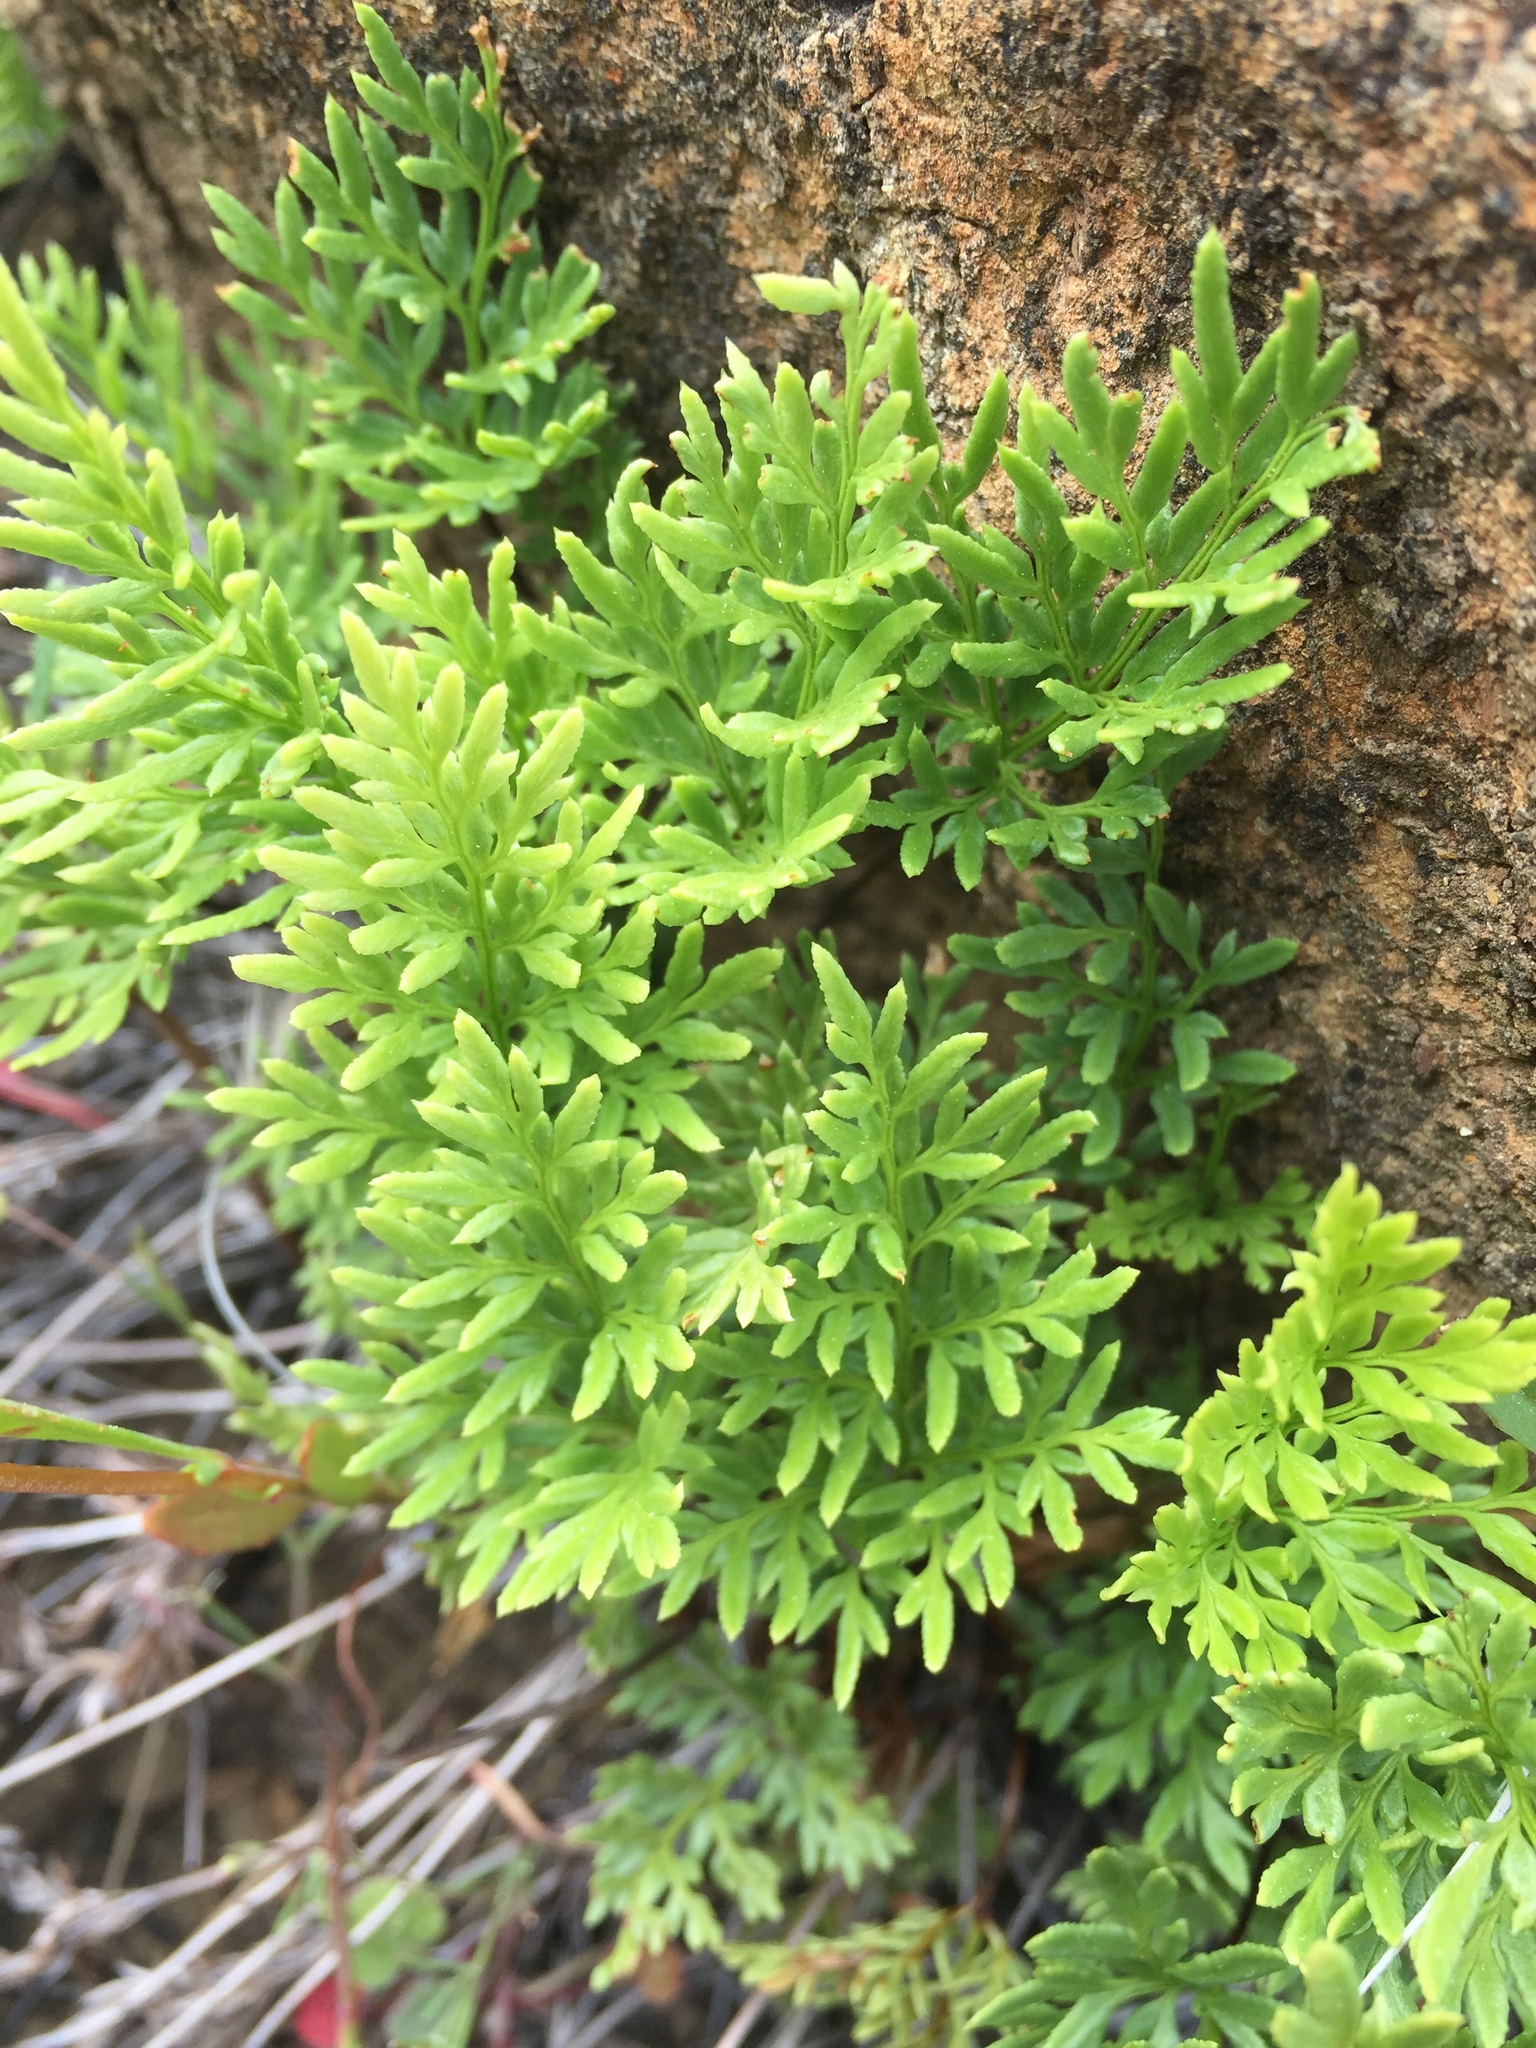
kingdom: Plantae
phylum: Tracheophyta
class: Polypodiopsida
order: Polypodiales
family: Pteridaceae
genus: Aspidotis
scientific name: Aspidotis densa
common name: Indian's dream
